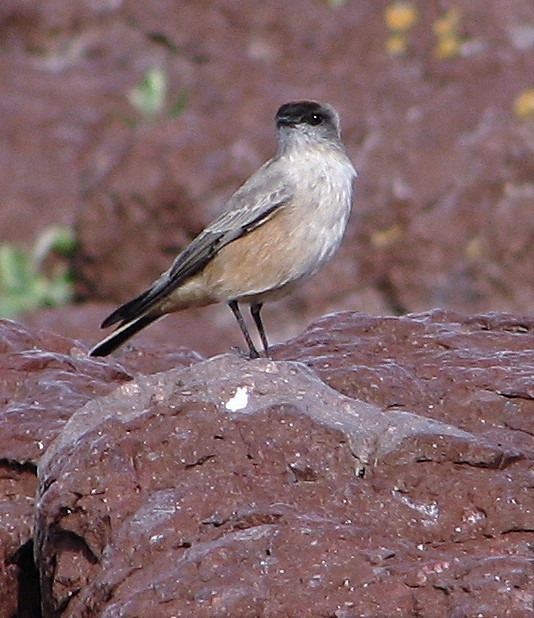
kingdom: Animalia
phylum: Chordata
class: Aves
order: Passeriformes
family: Tyrannidae
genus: Muscisaxicola
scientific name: Muscisaxicola capistratus
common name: Cinnamon-bellied ground tyrant
